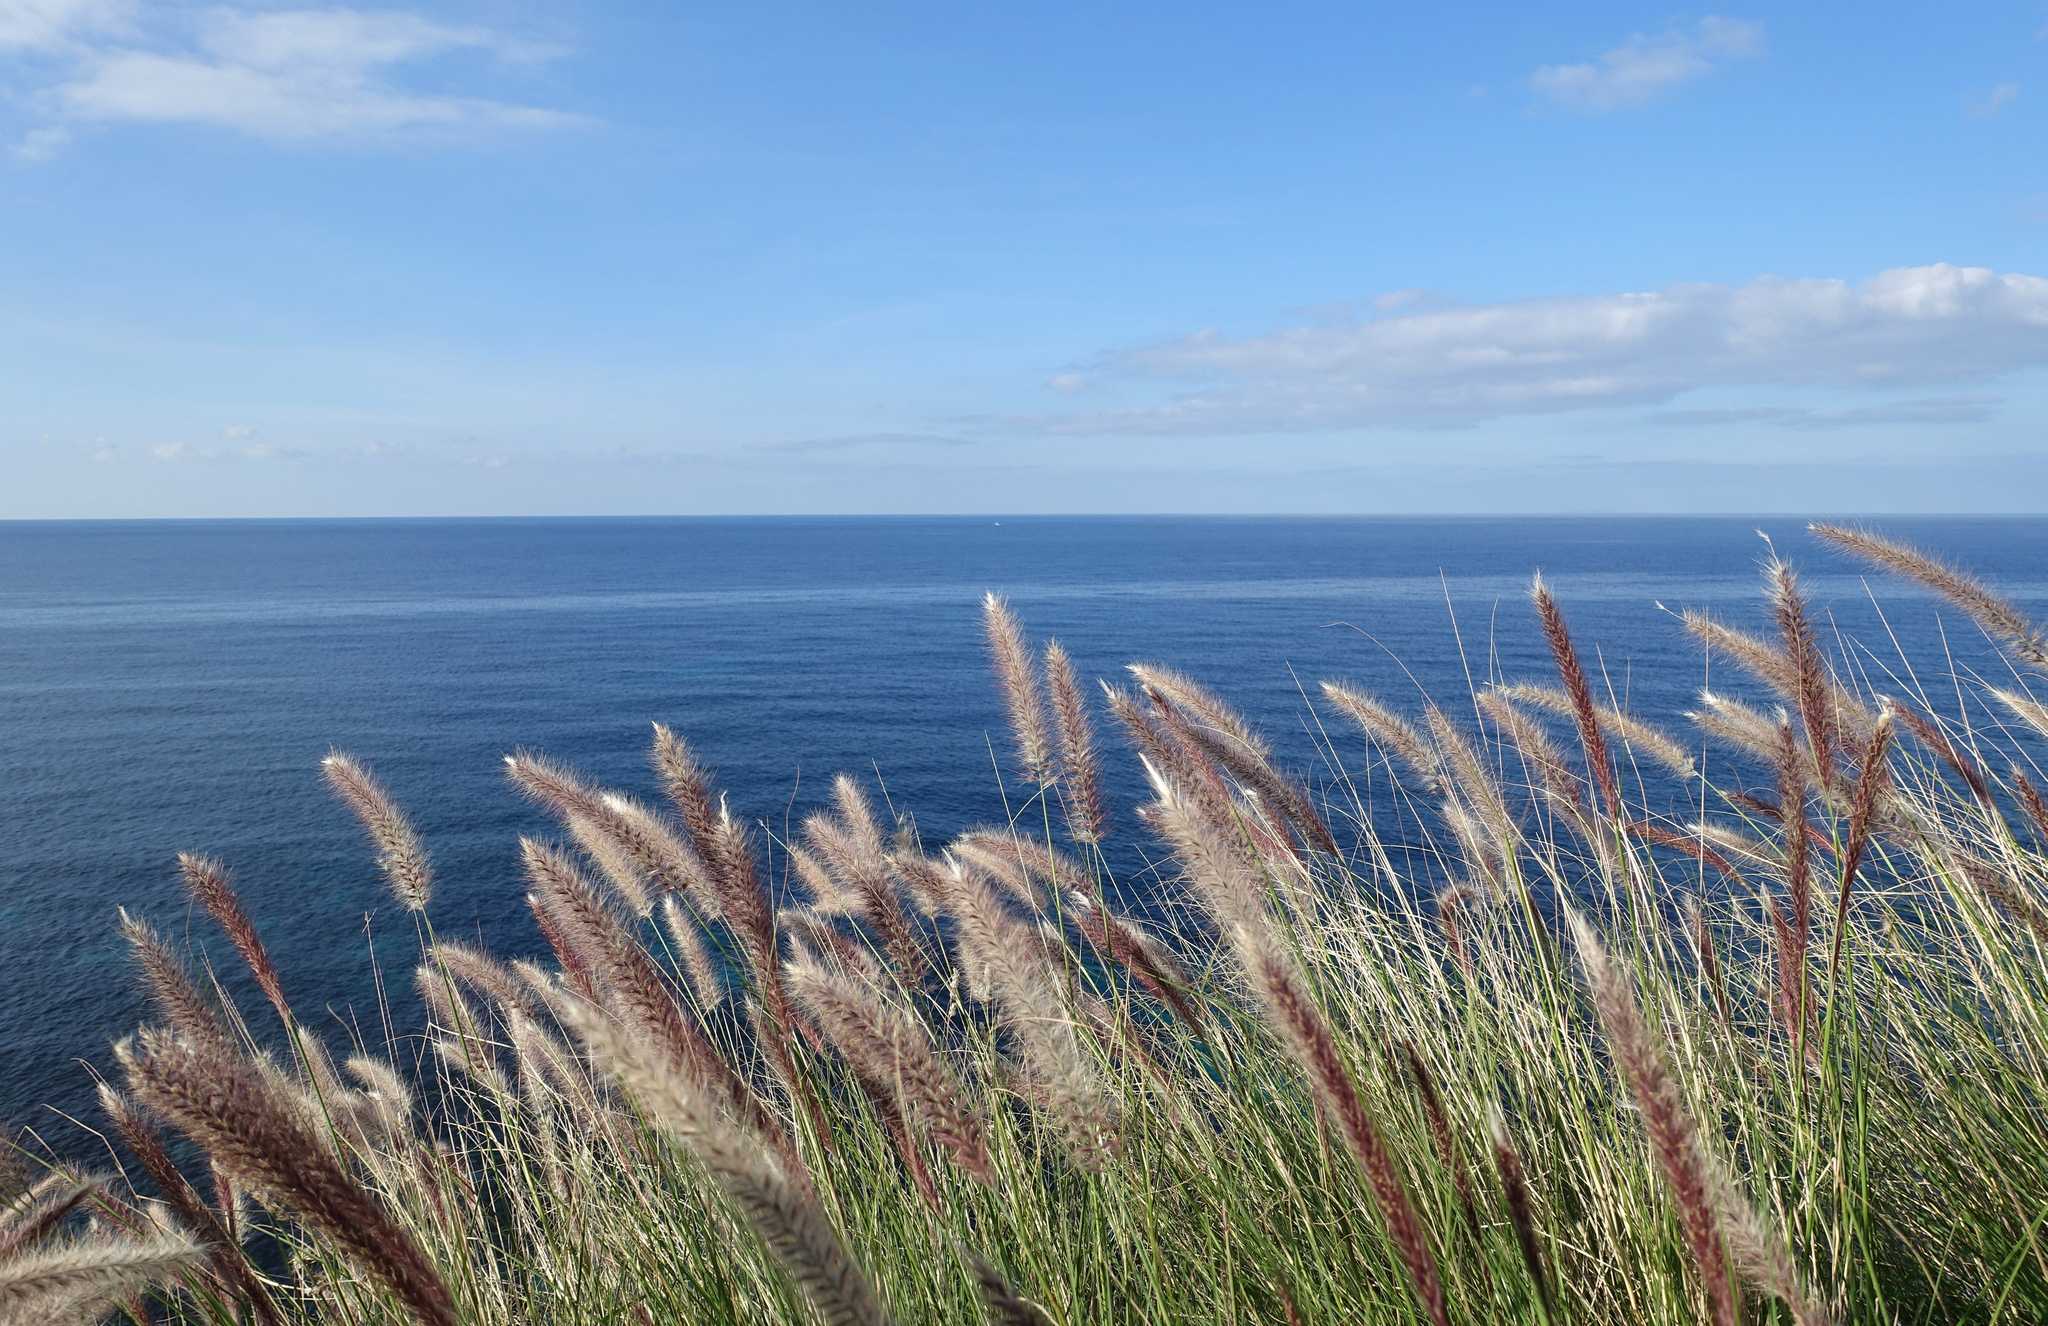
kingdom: Plantae
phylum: Tracheophyta
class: Liliopsida
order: Poales
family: Poaceae
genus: Cenchrus
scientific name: Cenchrus setaceus
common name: Crimson fountaingrass
